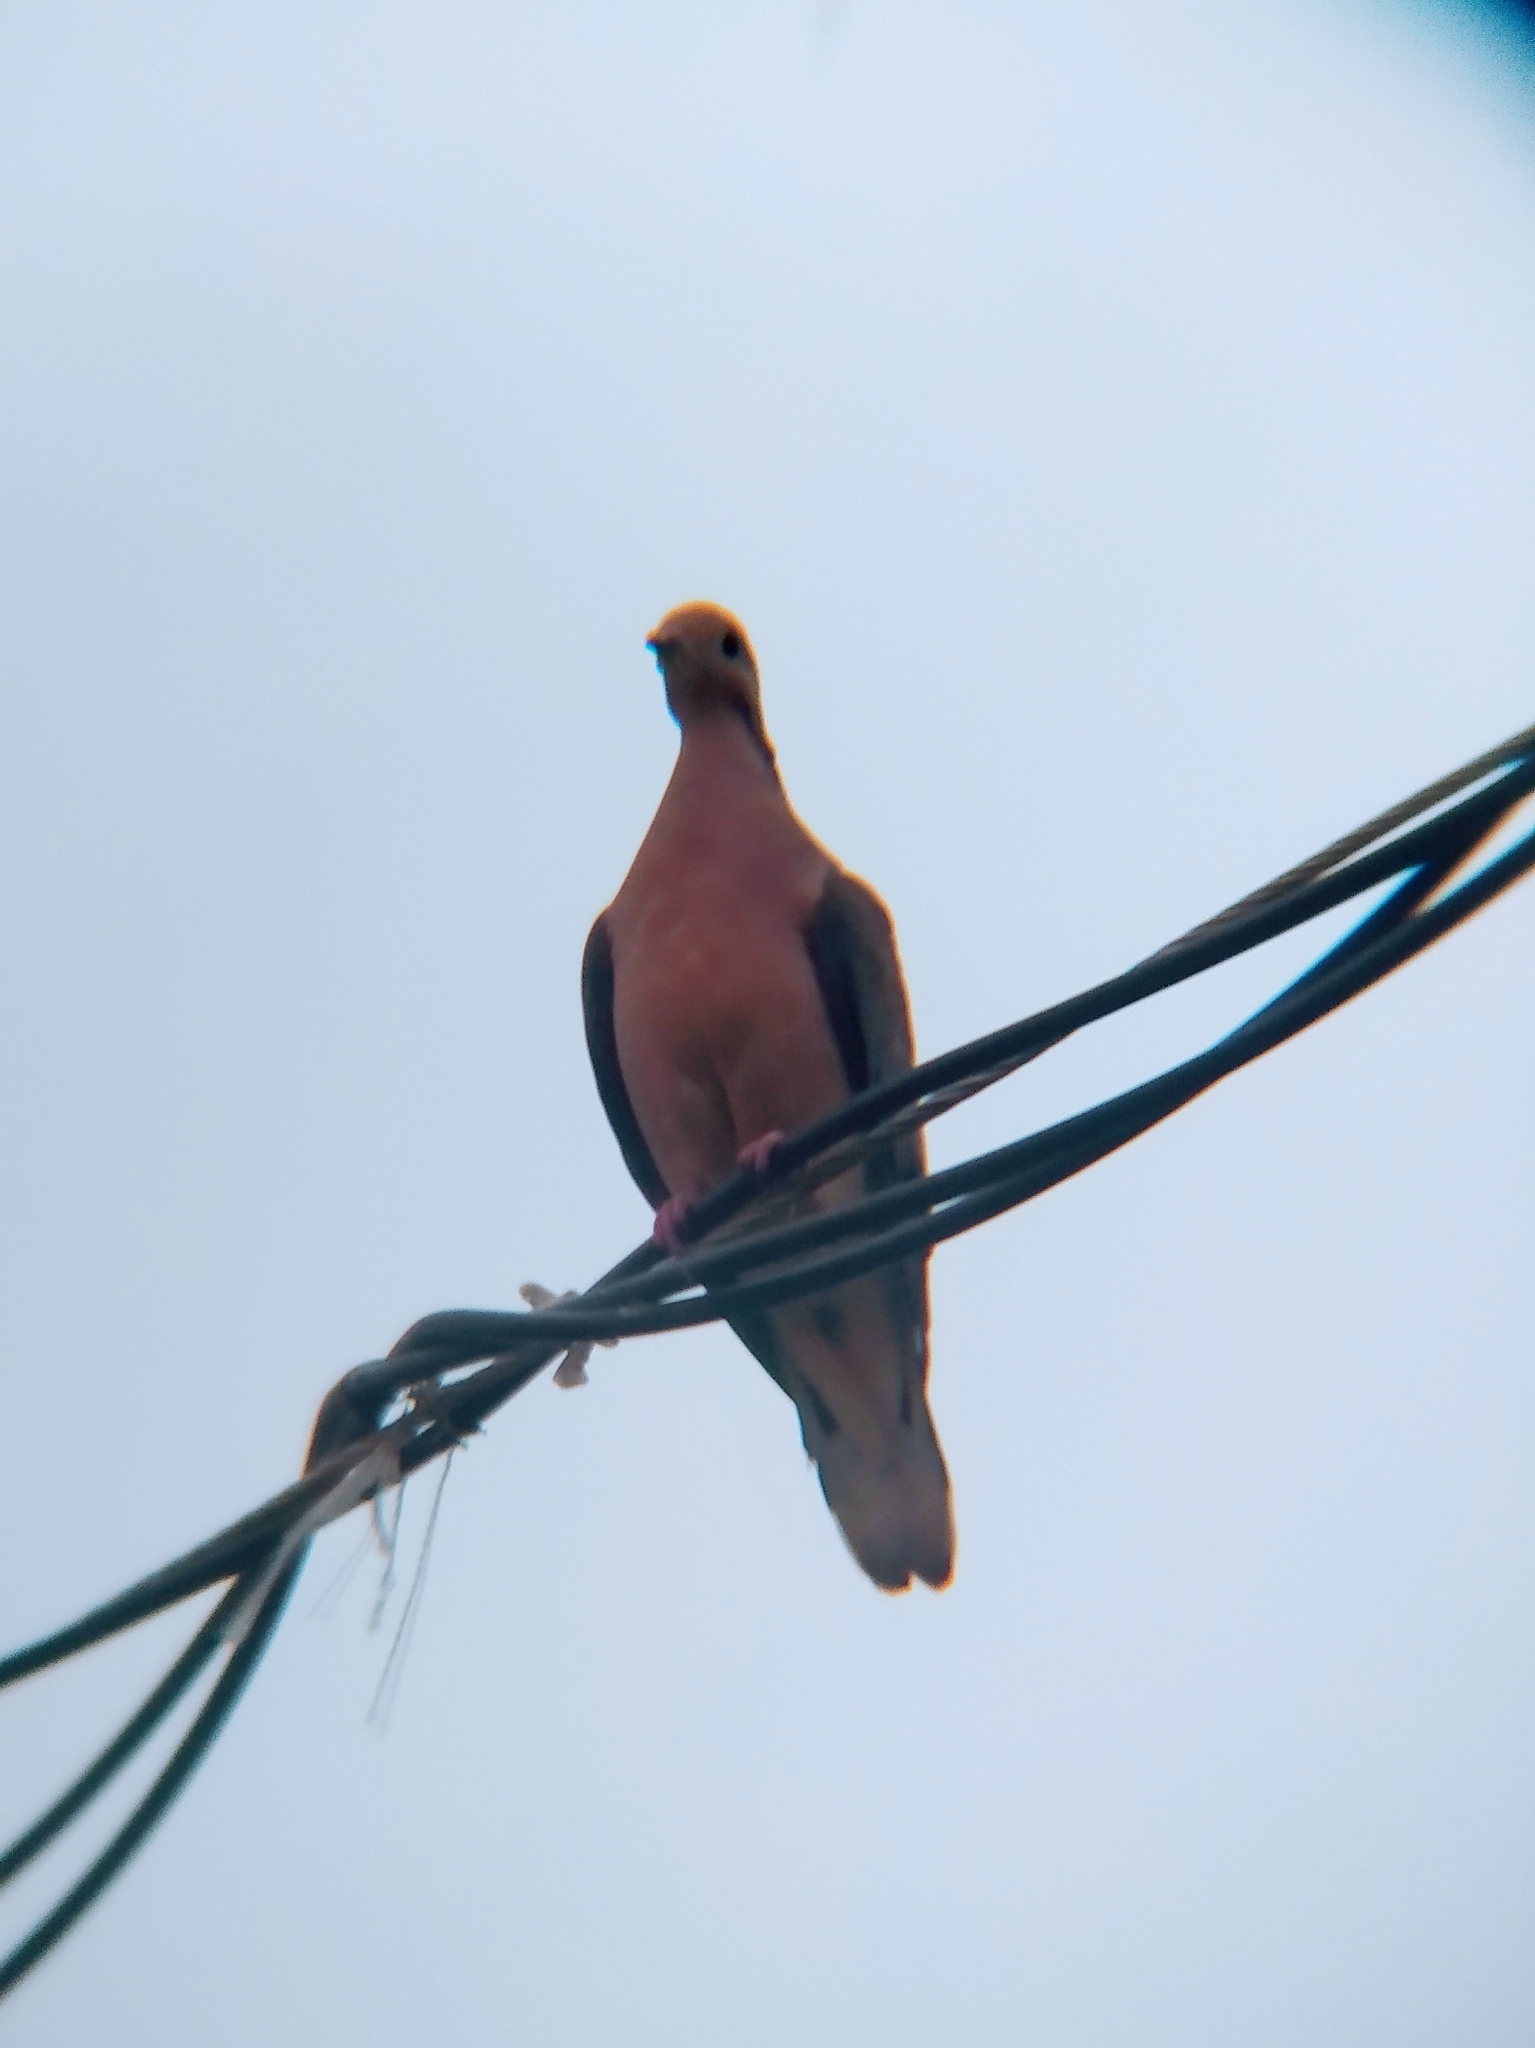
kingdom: Animalia
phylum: Chordata
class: Aves
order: Columbiformes
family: Columbidae
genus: Zenaida
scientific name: Zenaida auriculata
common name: Eared dove
